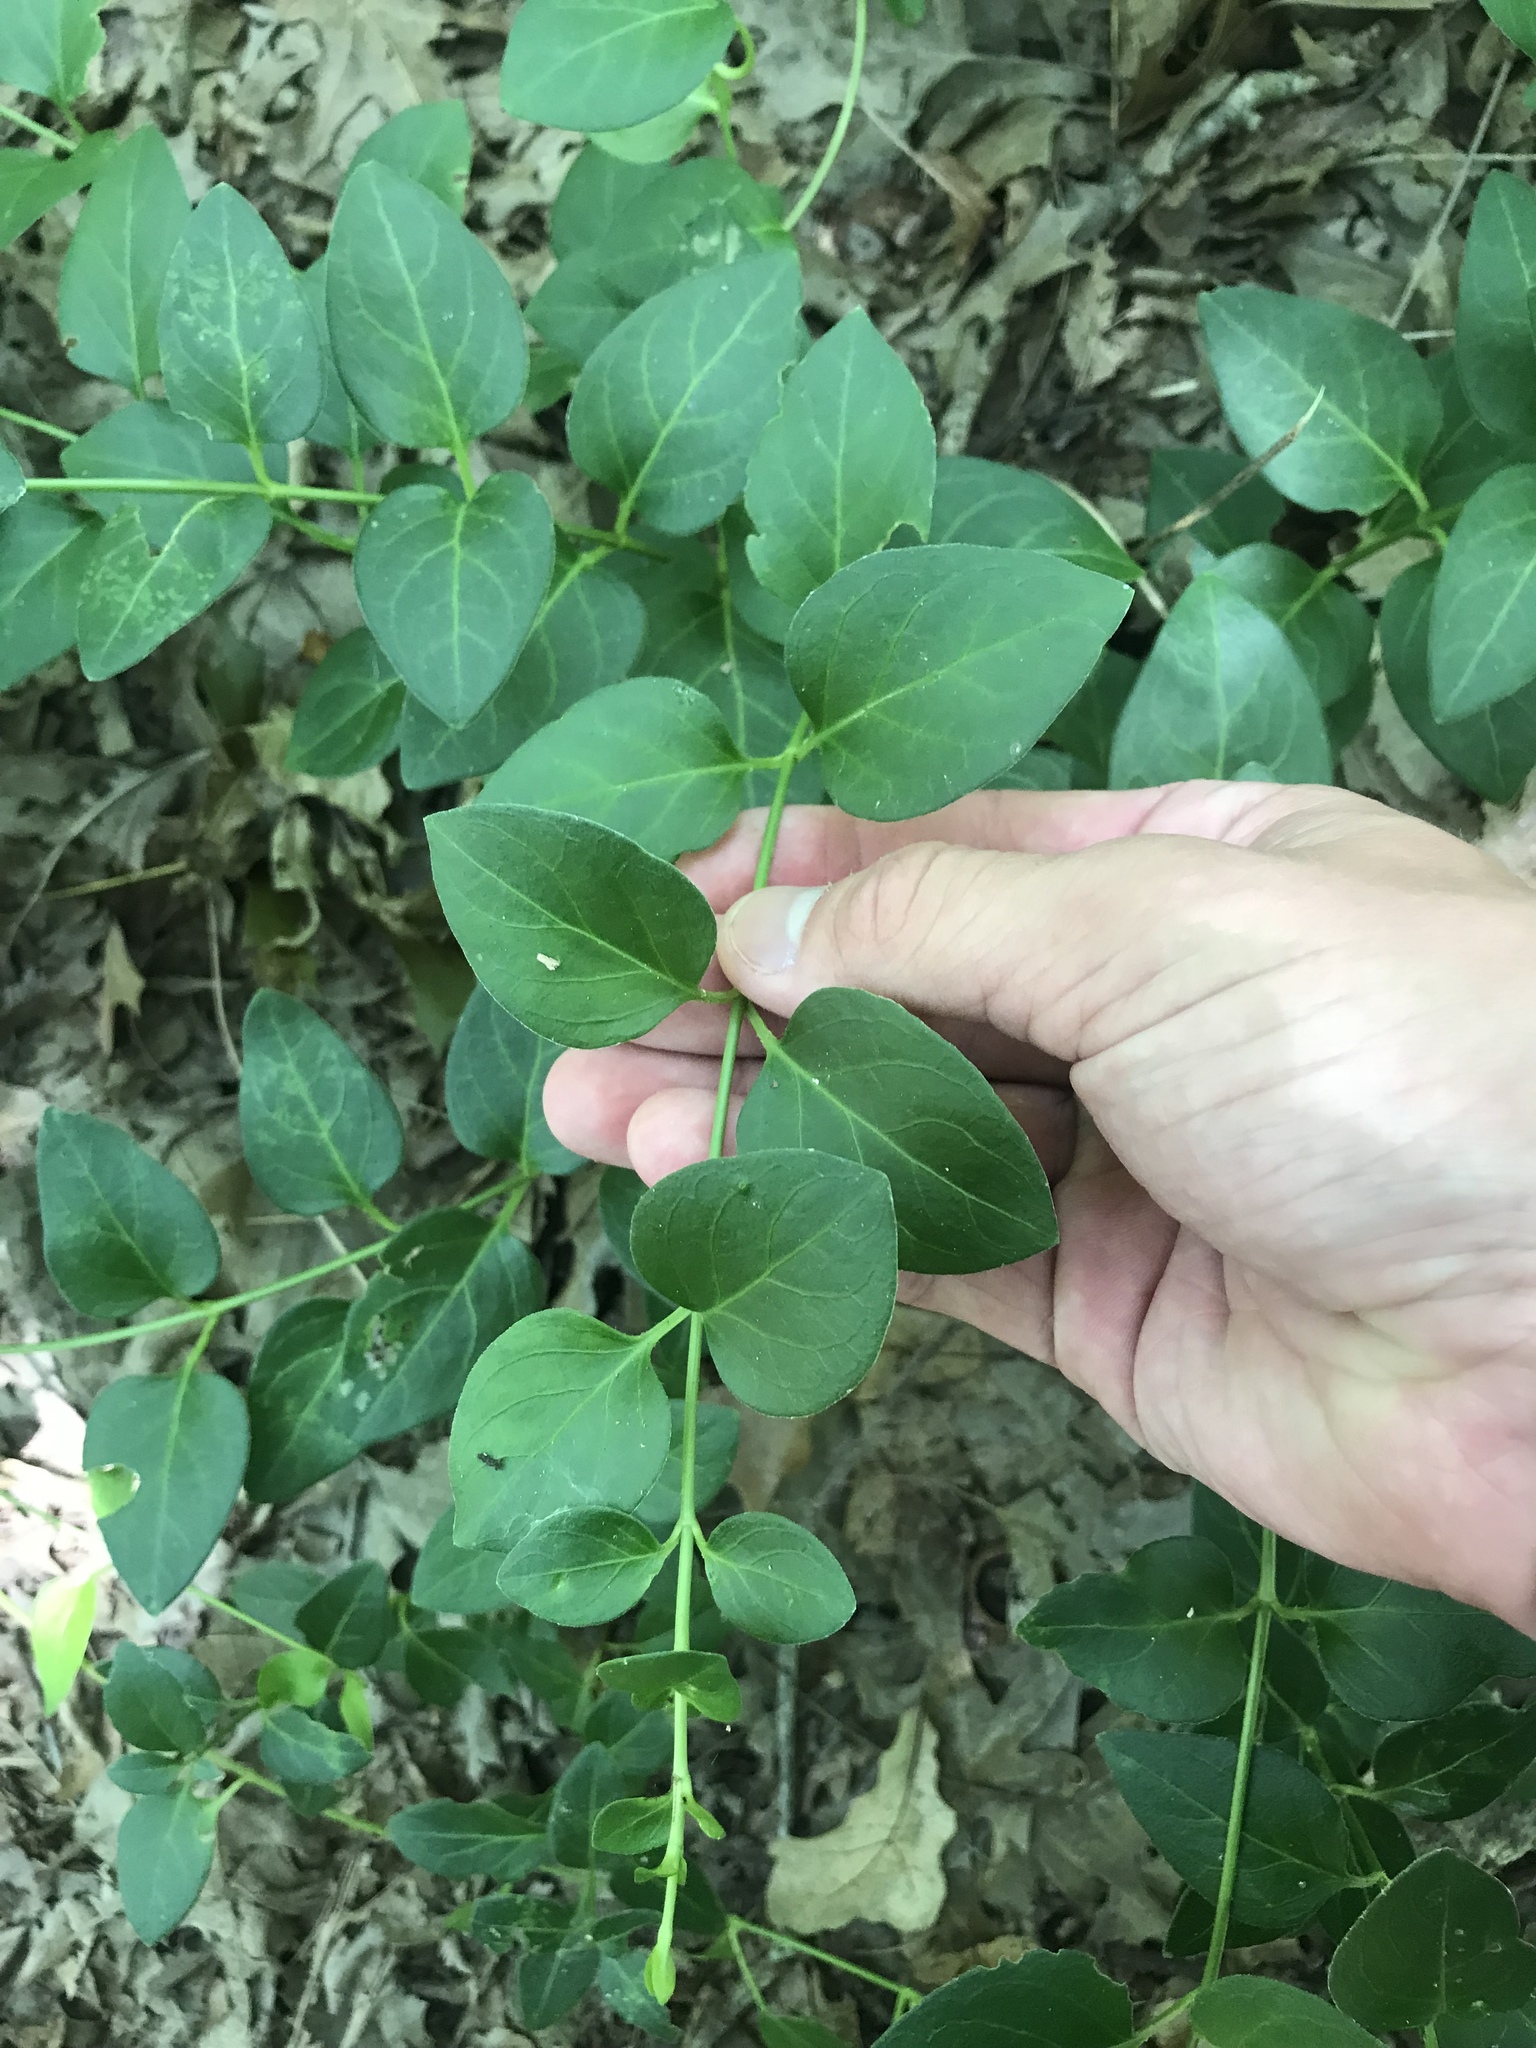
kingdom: Plantae
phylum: Tracheophyta
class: Magnoliopsida
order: Gentianales
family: Apocynaceae
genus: Vinca
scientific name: Vinca major
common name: Greater periwinkle
